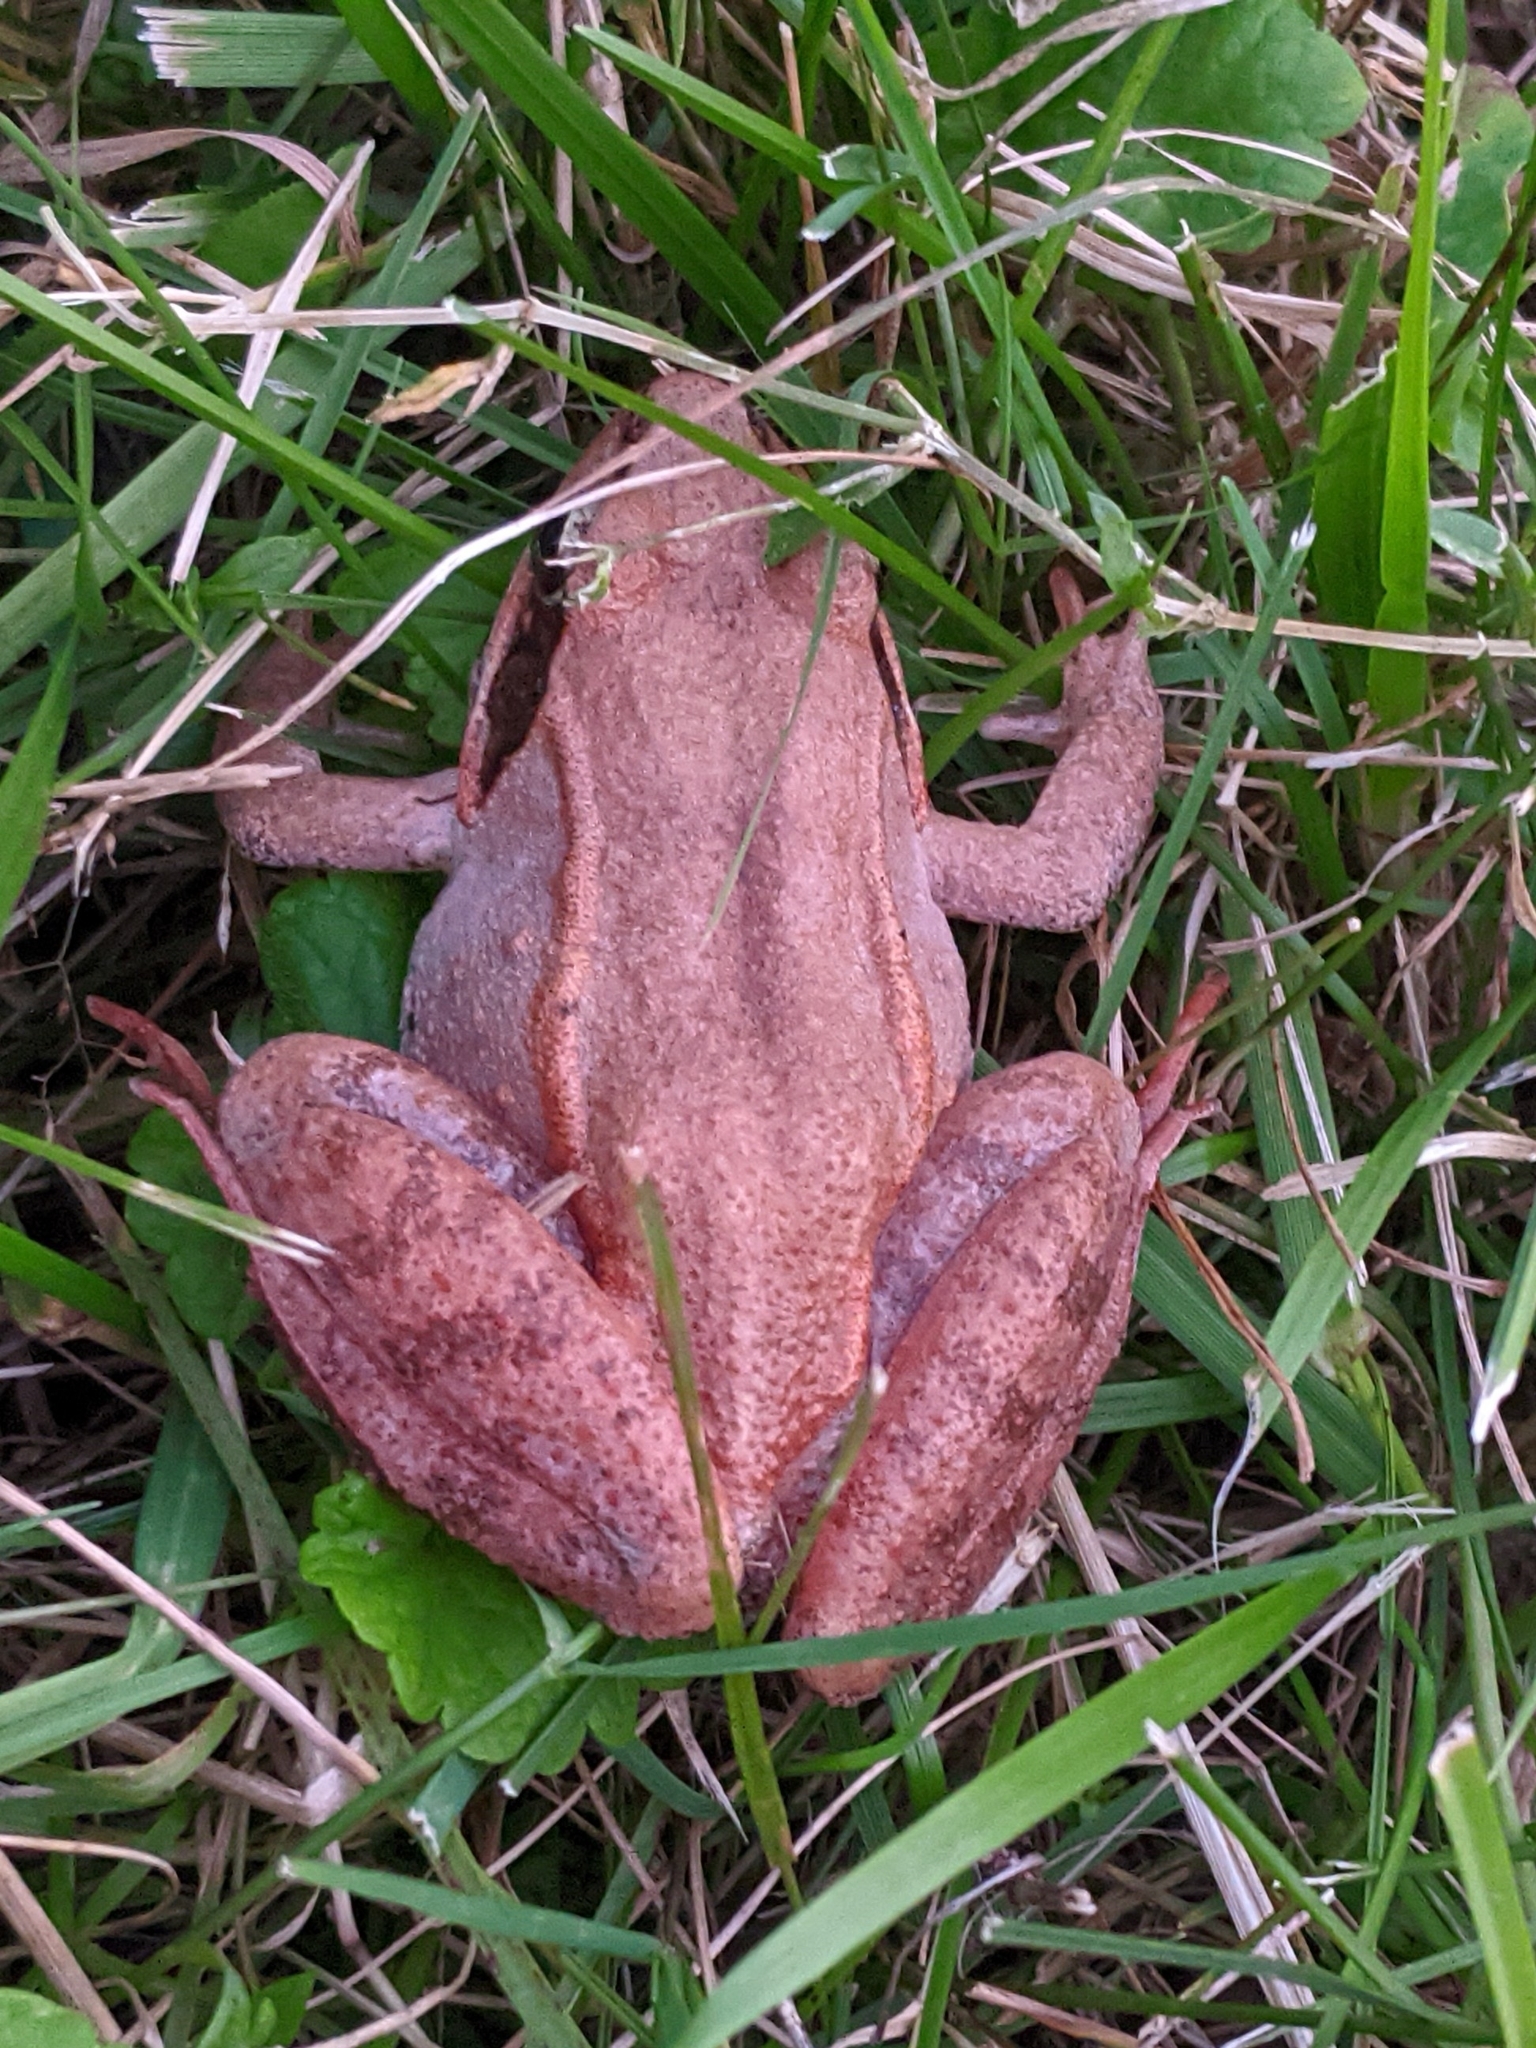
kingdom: Animalia
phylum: Chordata
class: Amphibia
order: Anura
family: Ranidae
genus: Lithobates
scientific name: Lithobates sylvaticus
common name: Wood frog
